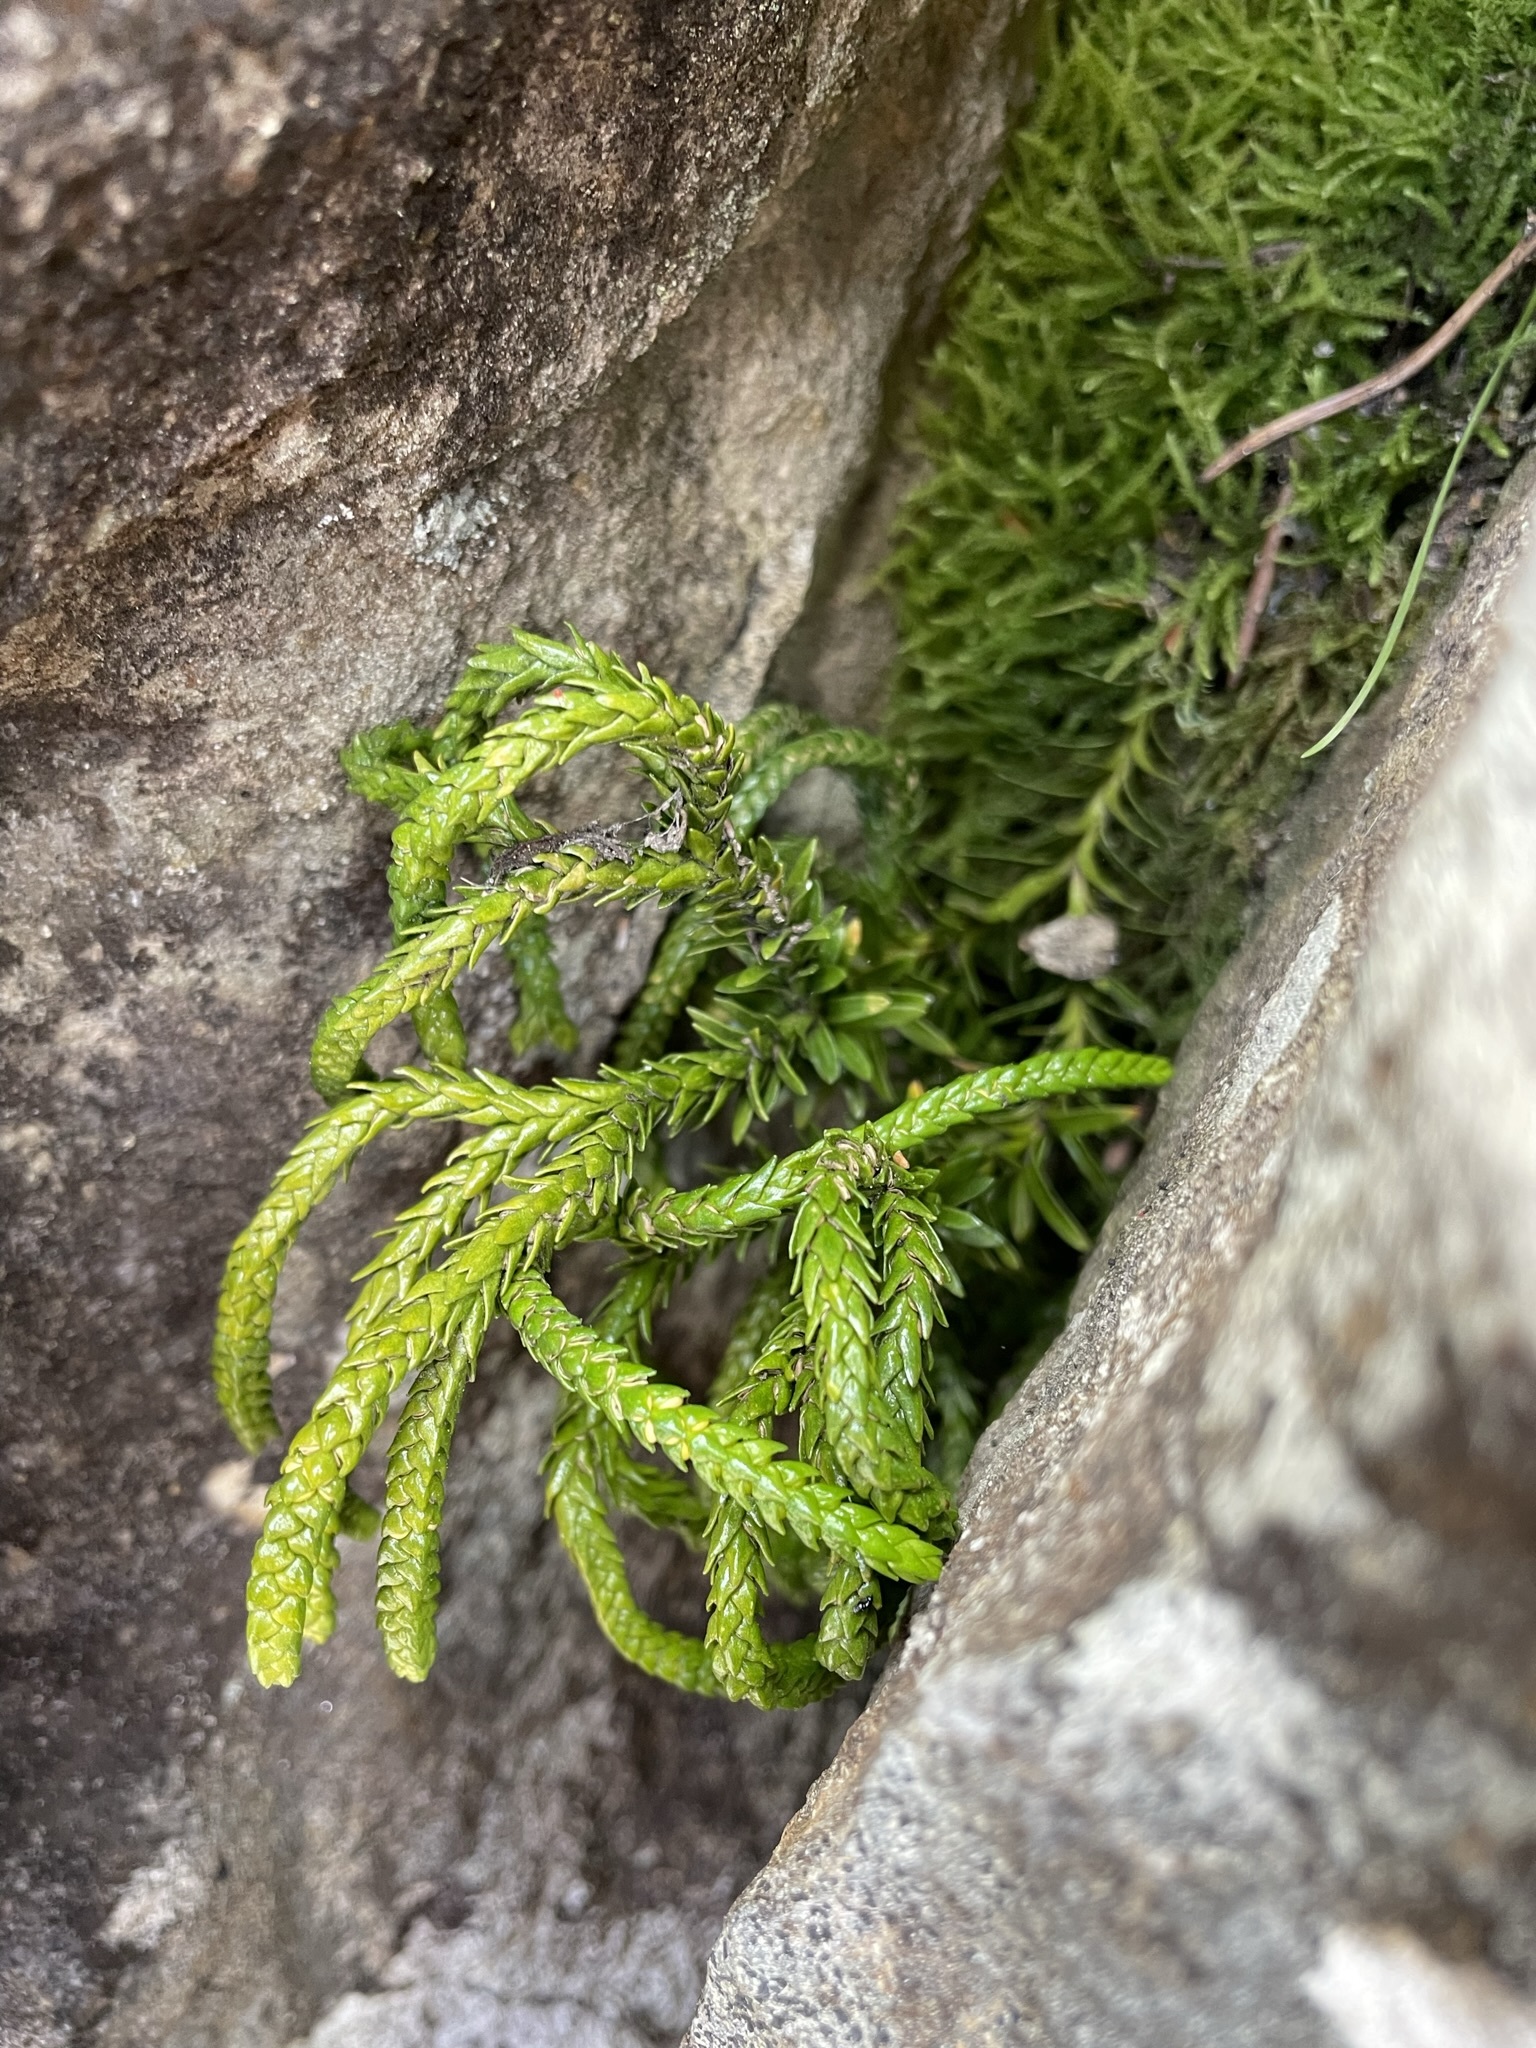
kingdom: Plantae
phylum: Tracheophyta
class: Lycopodiopsida
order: Lycopodiales
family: Lycopodiaceae
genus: Phlegmariurus
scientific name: Phlegmariurus varius
